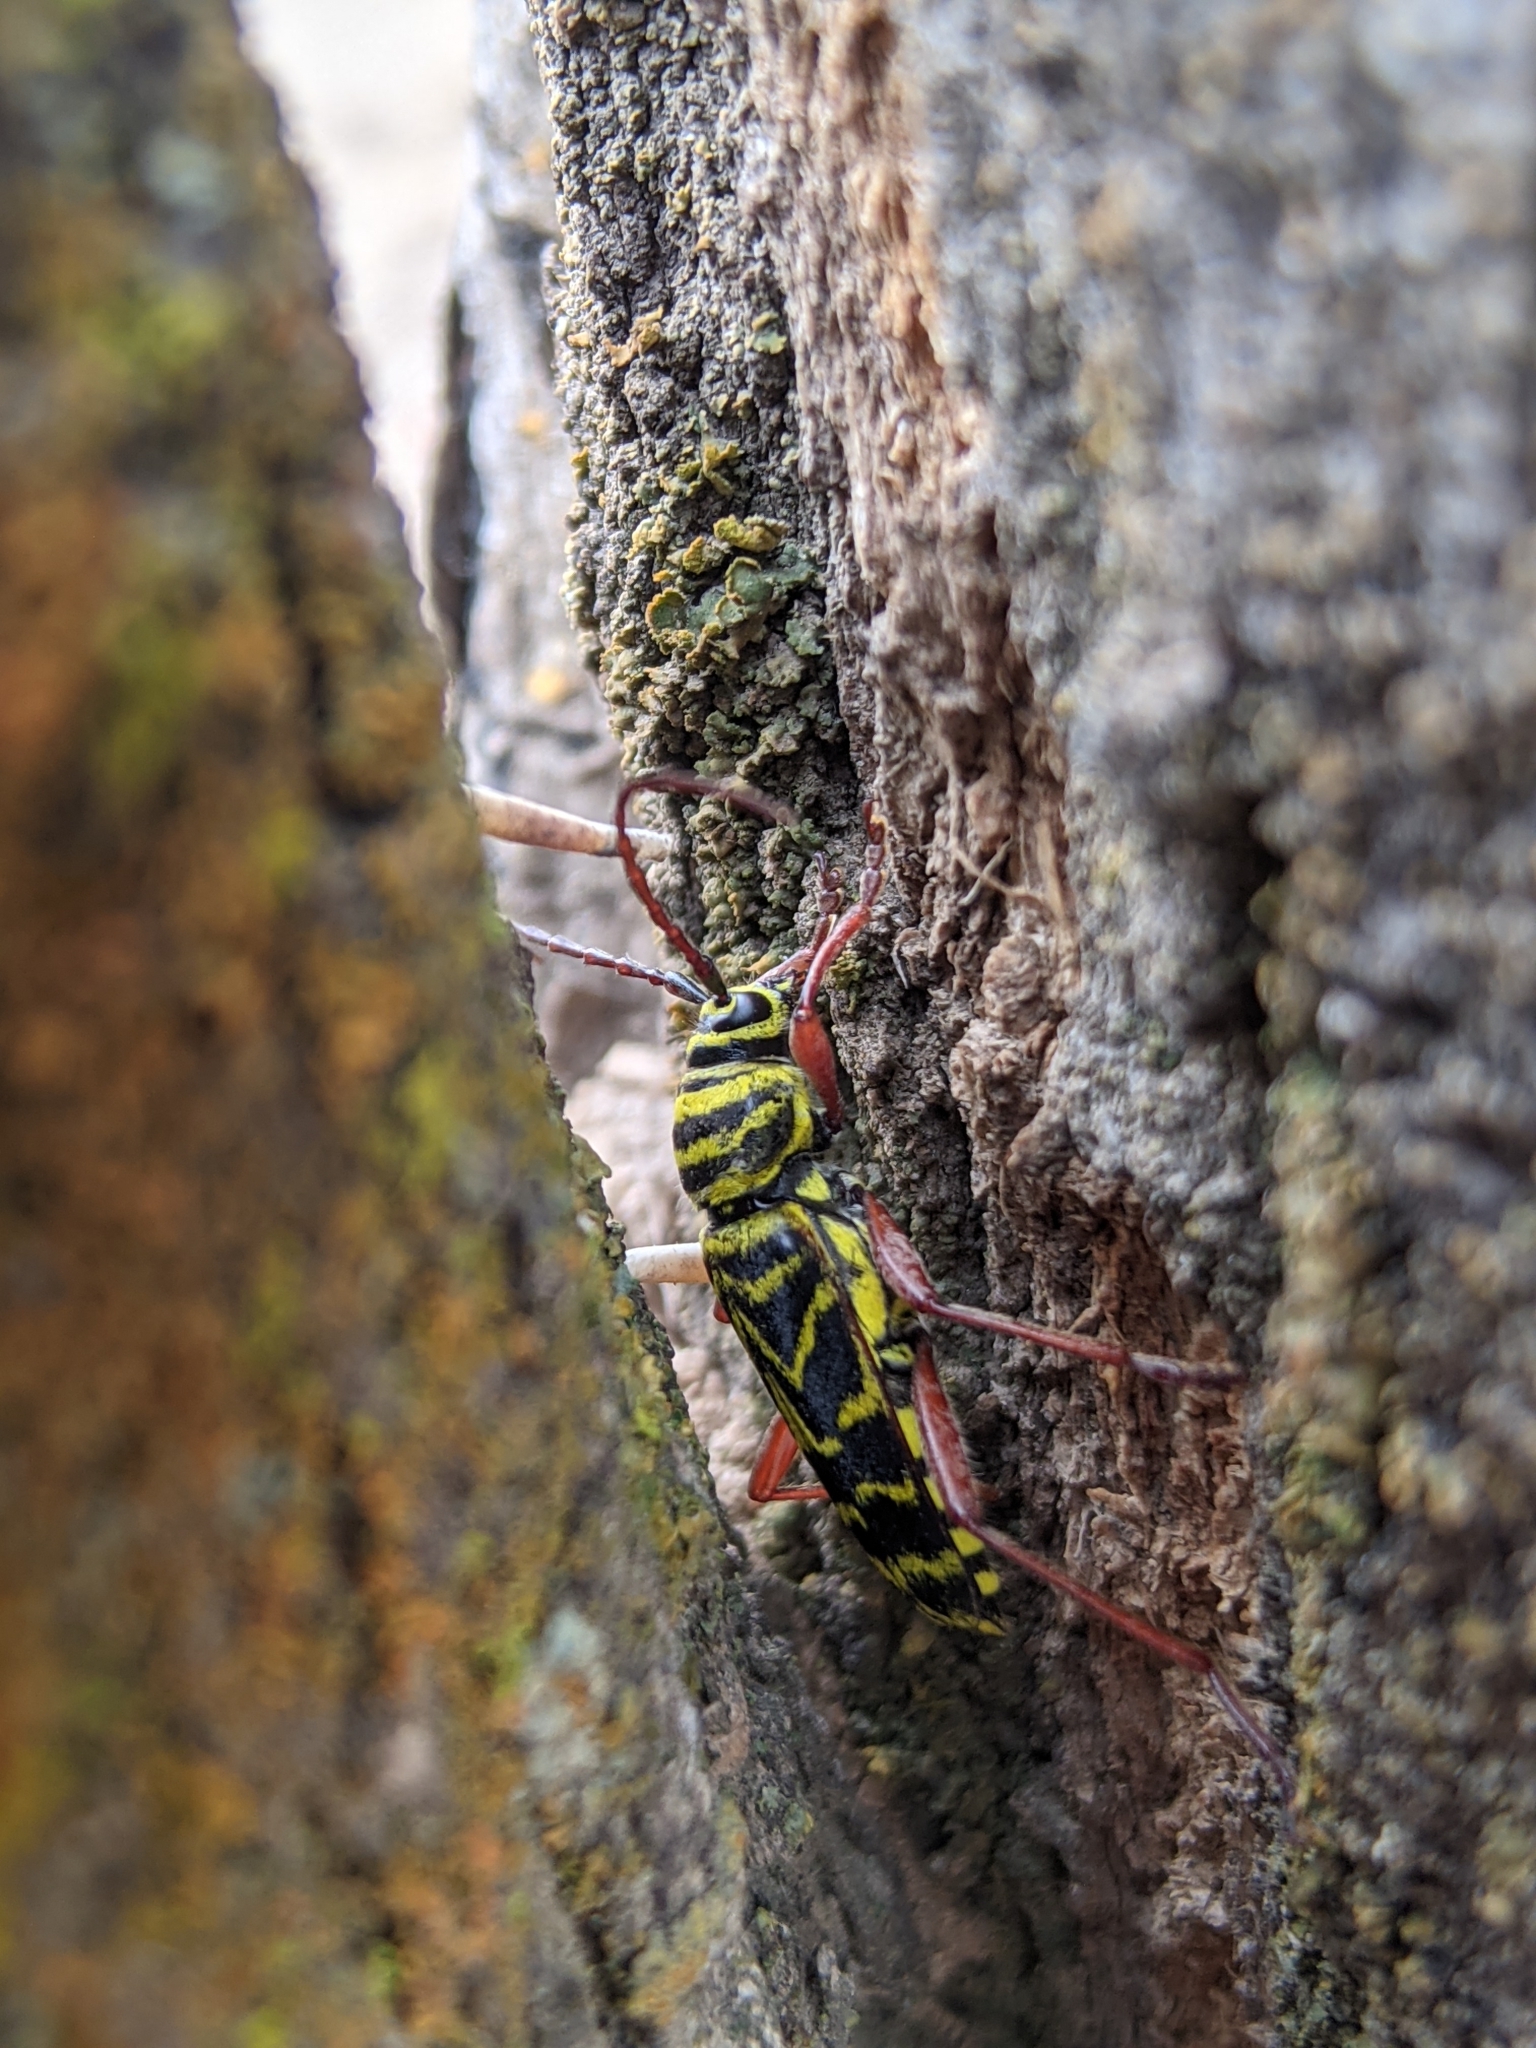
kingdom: Animalia
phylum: Arthropoda
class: Insecta
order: Coleoptera
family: Cerambycidae
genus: Megacyllene
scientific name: Megacyllene robiniae
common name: Locust borer
